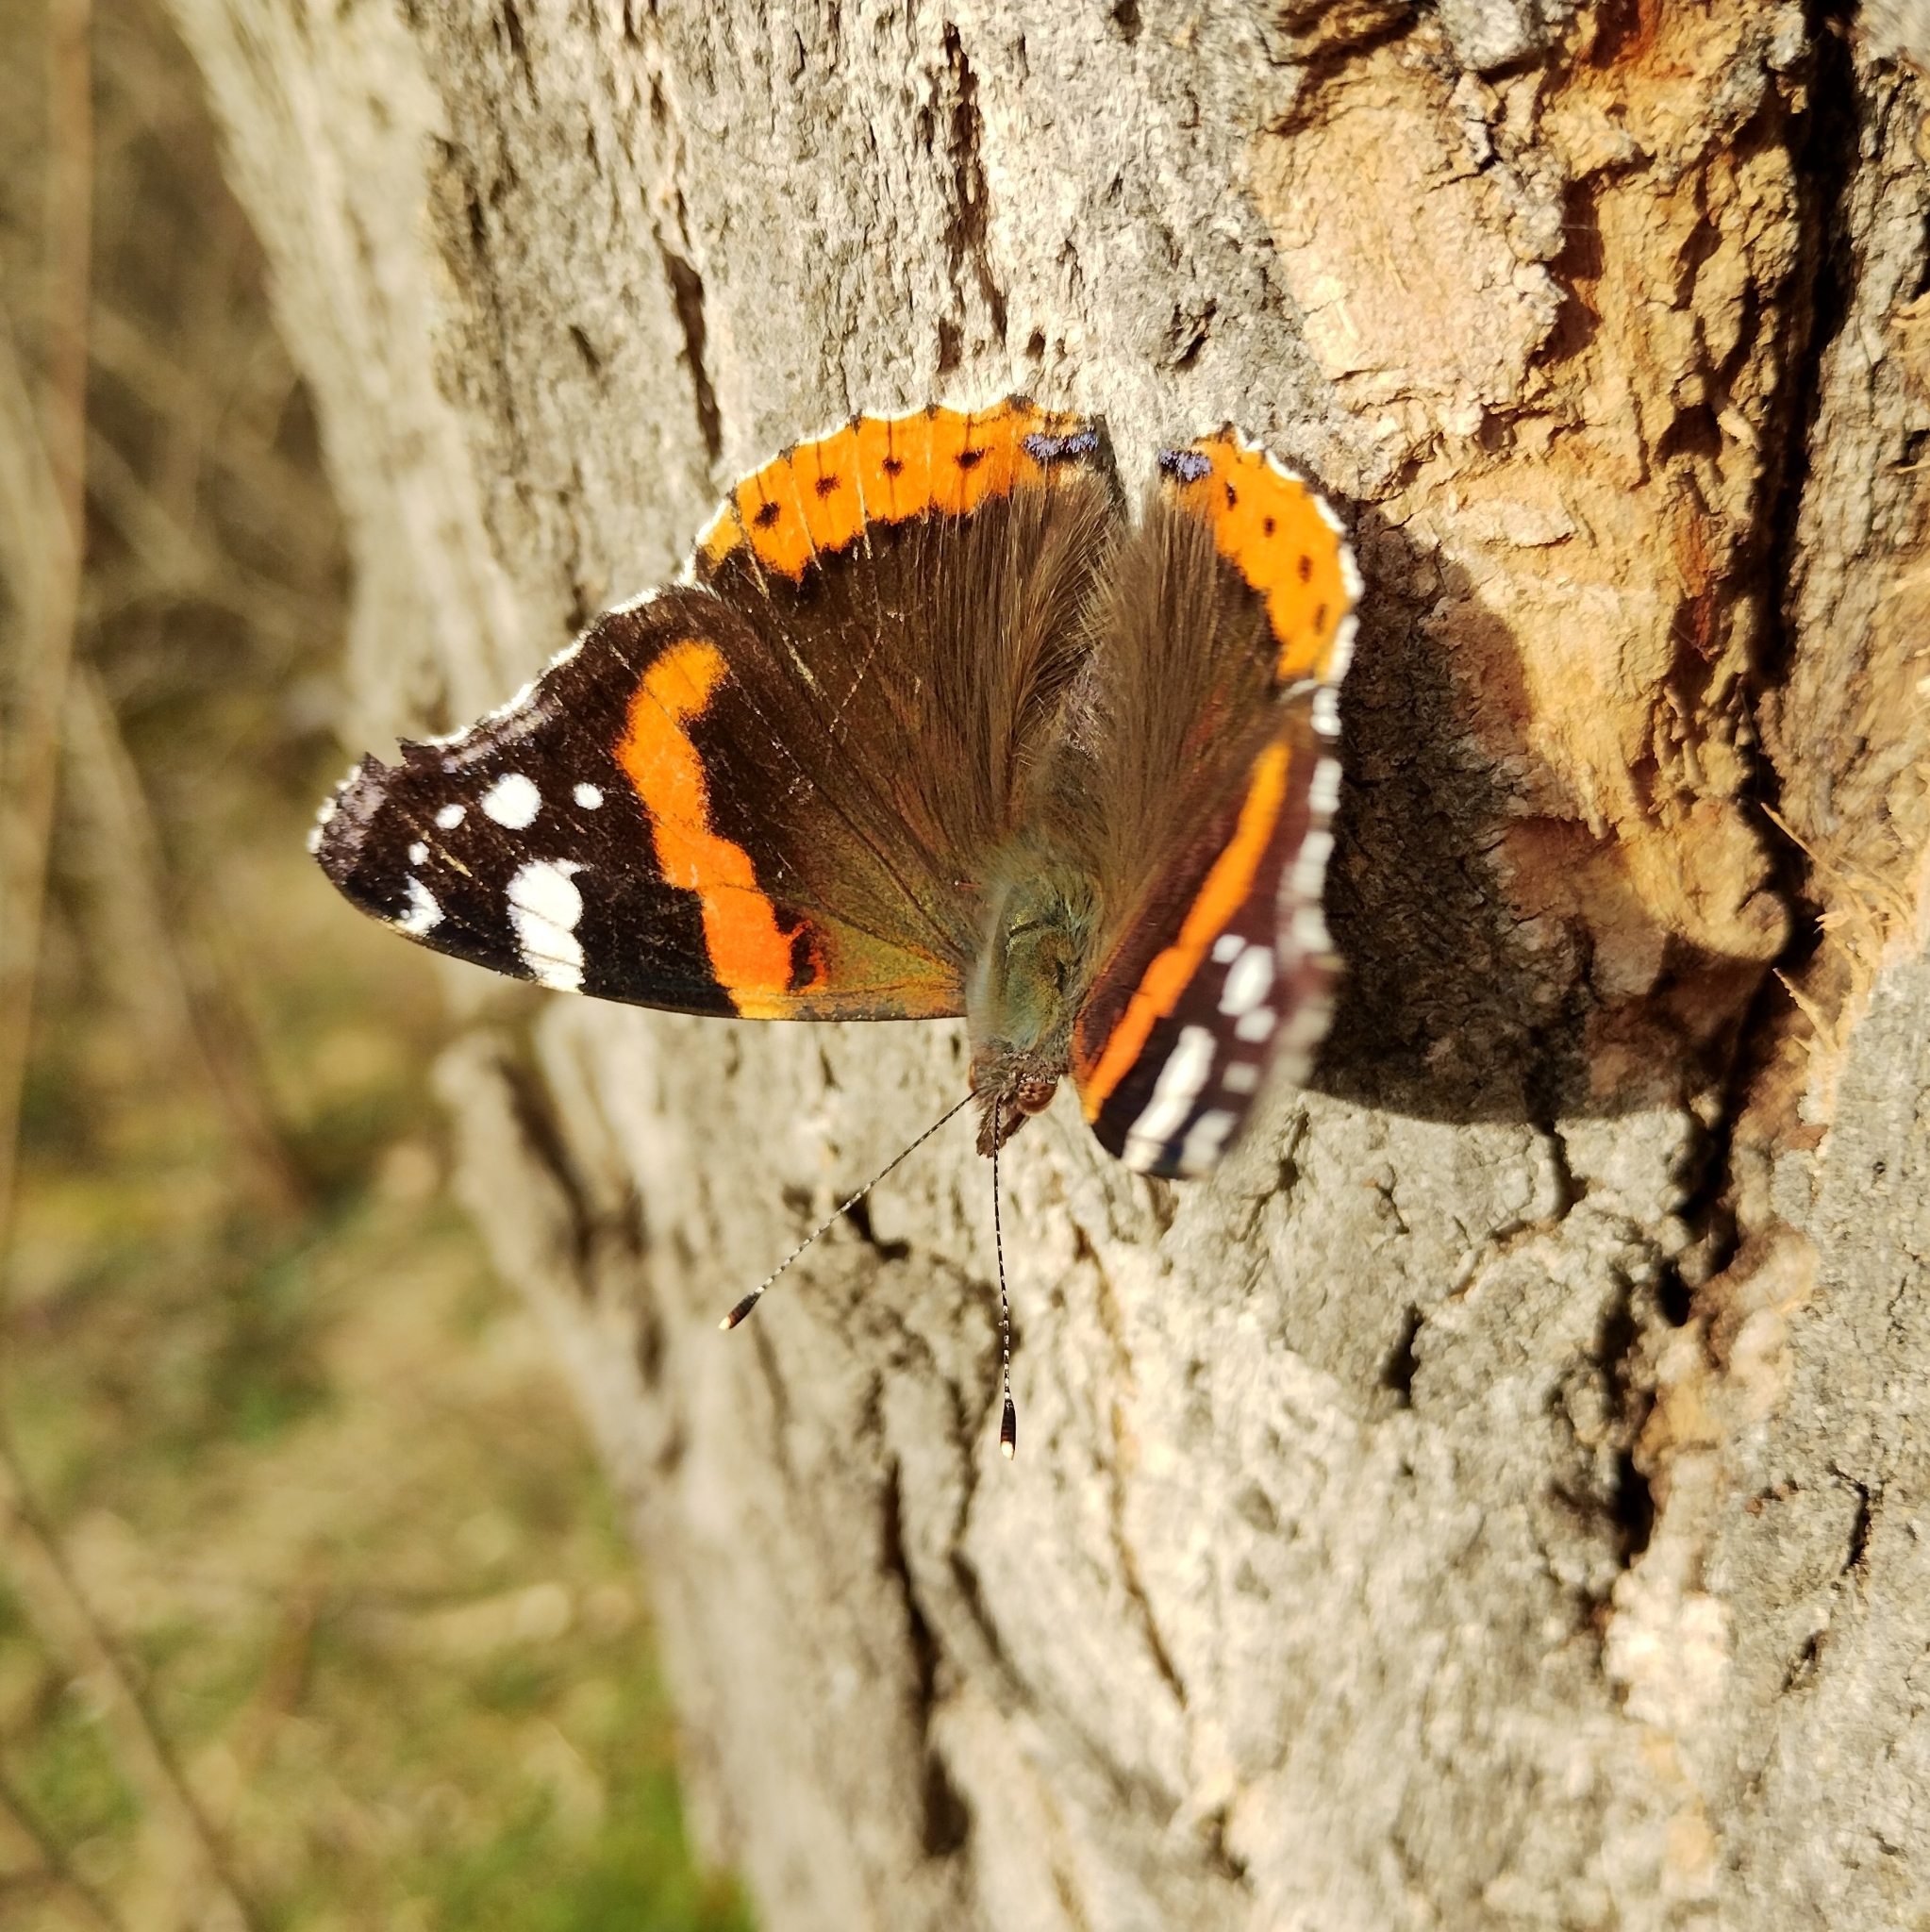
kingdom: Animalia
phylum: Arthropoda
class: Insecta
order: Lepidoptera
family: Nymphalidae
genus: Vanessa
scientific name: Vanessa atalanta
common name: Red admiral
